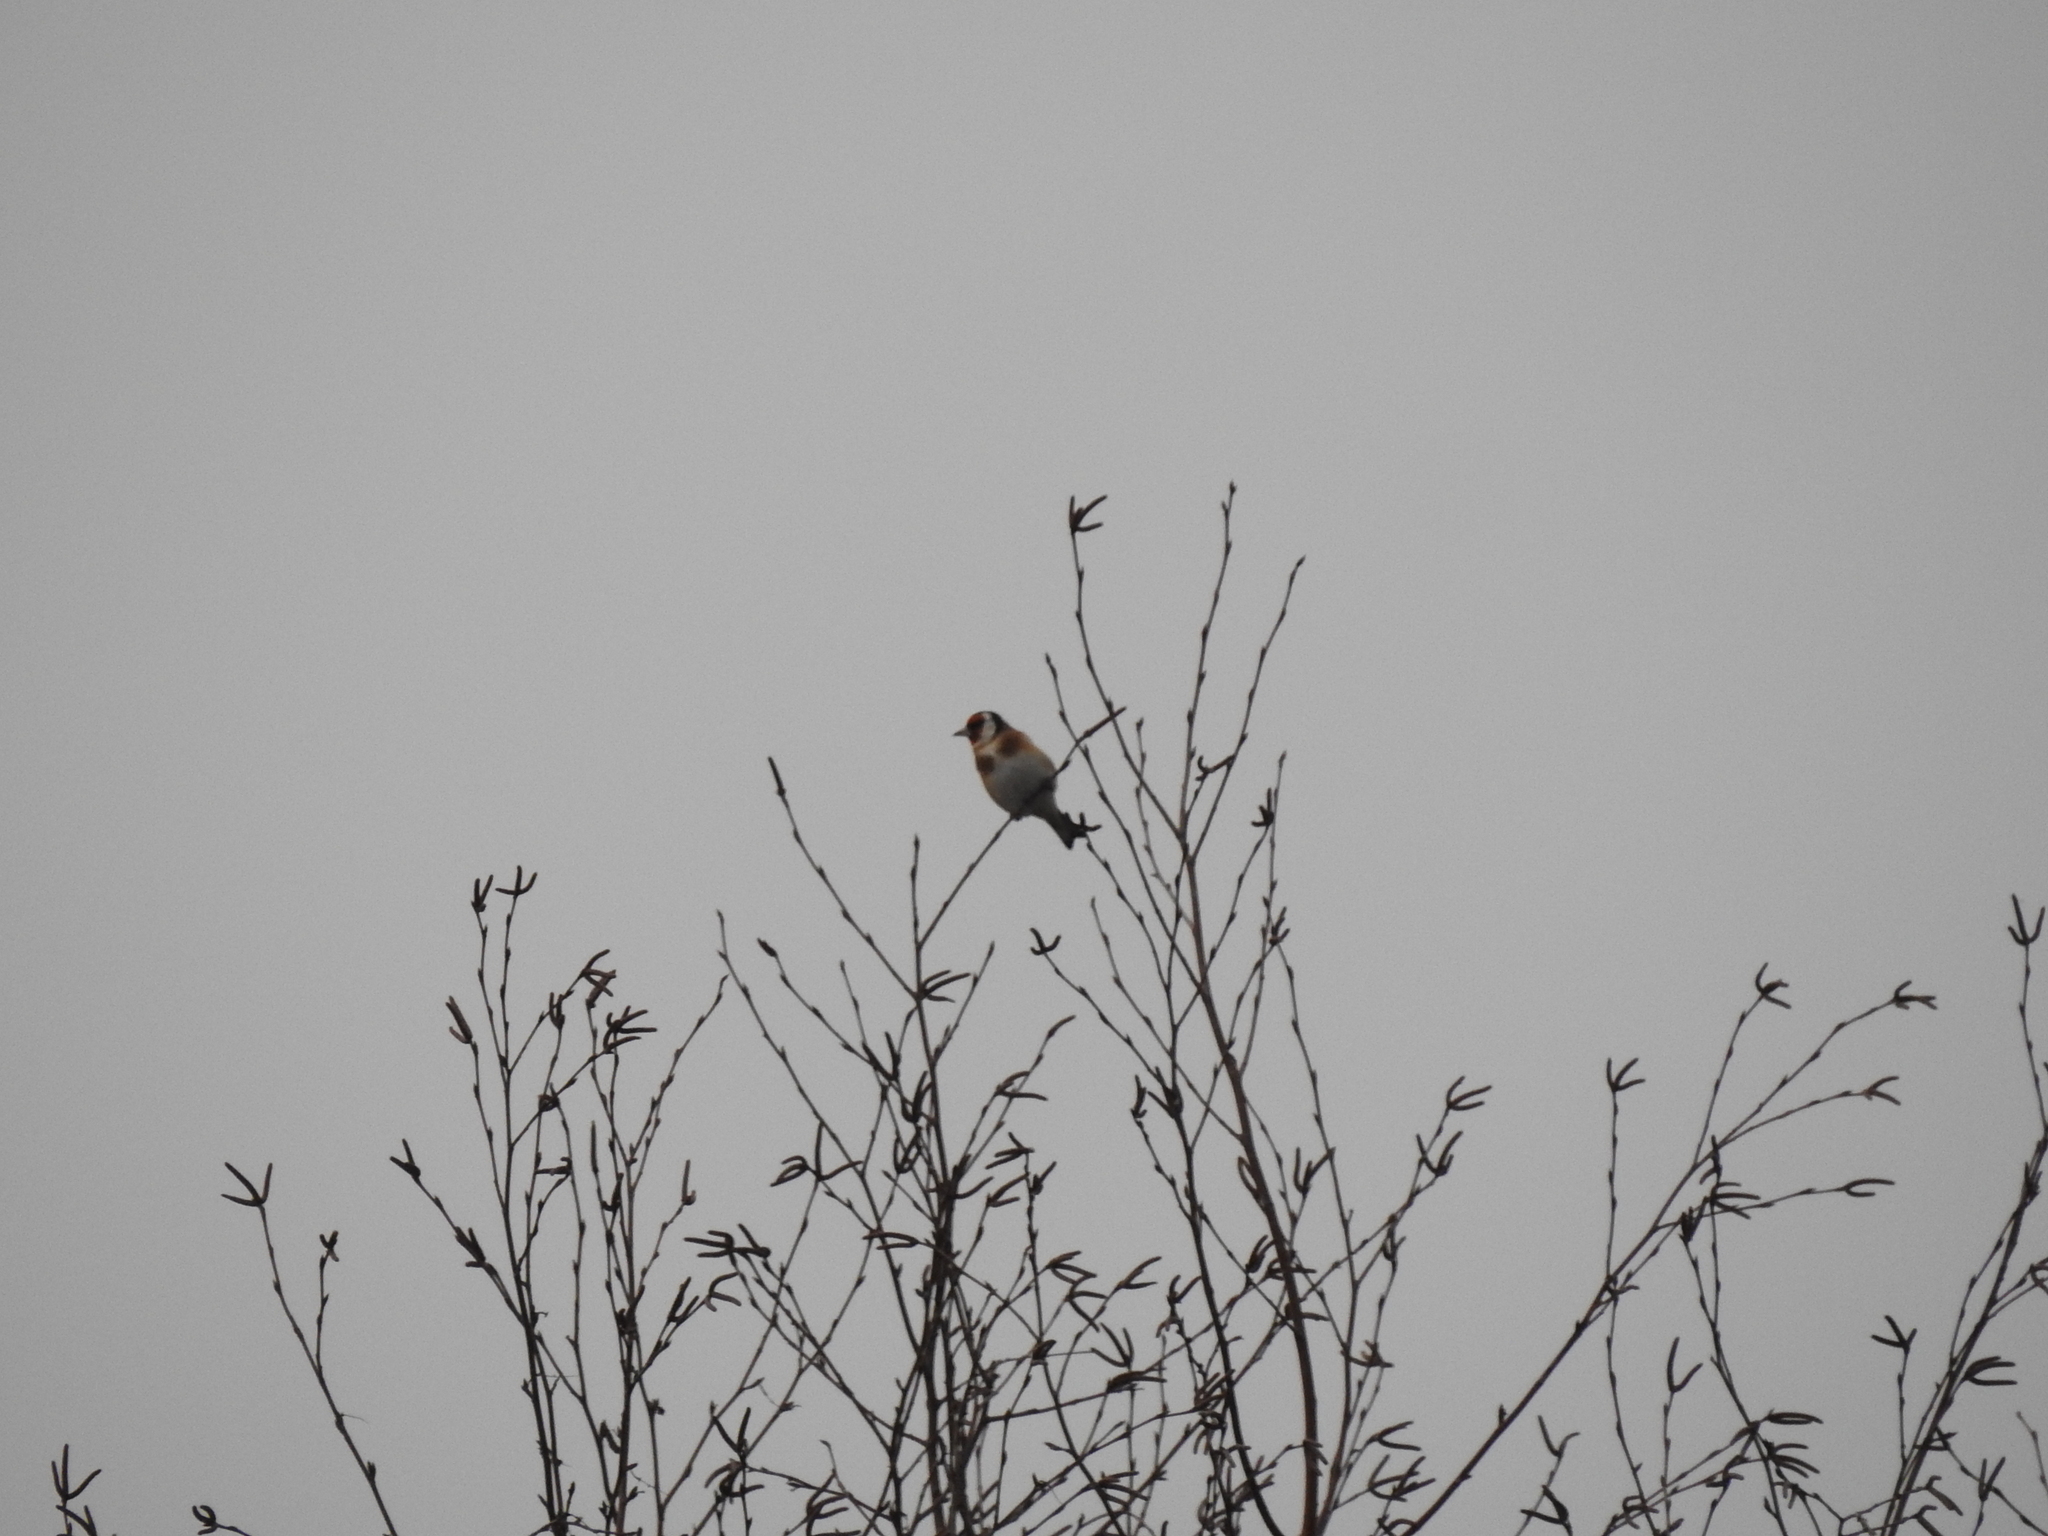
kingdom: Animalia
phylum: Chordata
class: Aves
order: Passeriformes
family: Fringillidae
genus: Carduelis
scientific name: Carduelis carduelis
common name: European goldfinch
